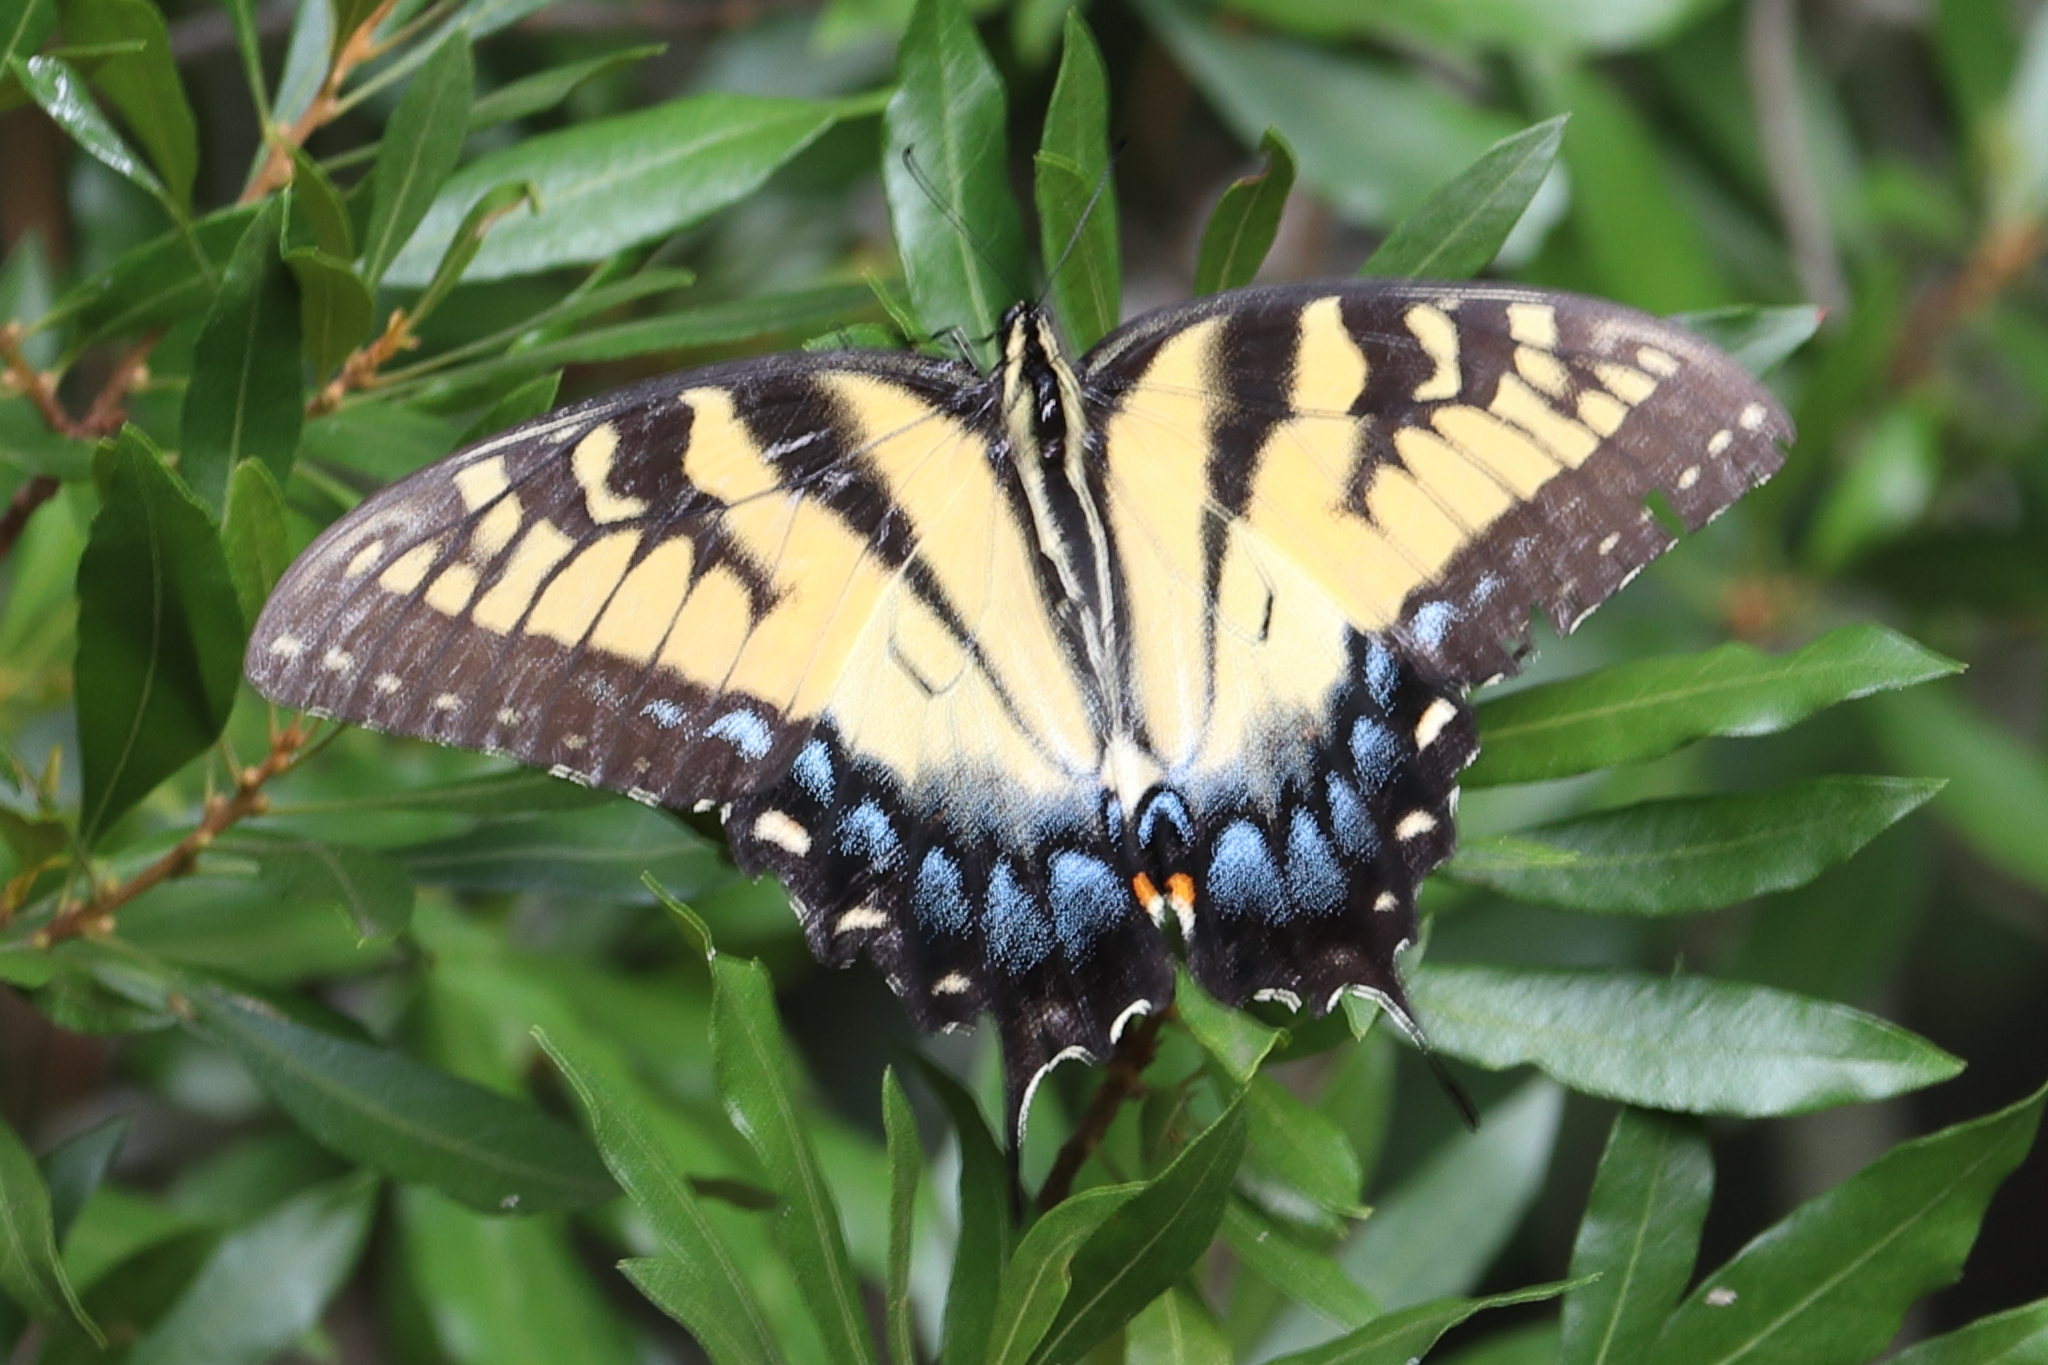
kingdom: Animalia
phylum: Arthropoda
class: Insecta
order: Lepidoptera
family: Papilionidae
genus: Papilio
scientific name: Papilio glaucus
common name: Tiger swallowtail
